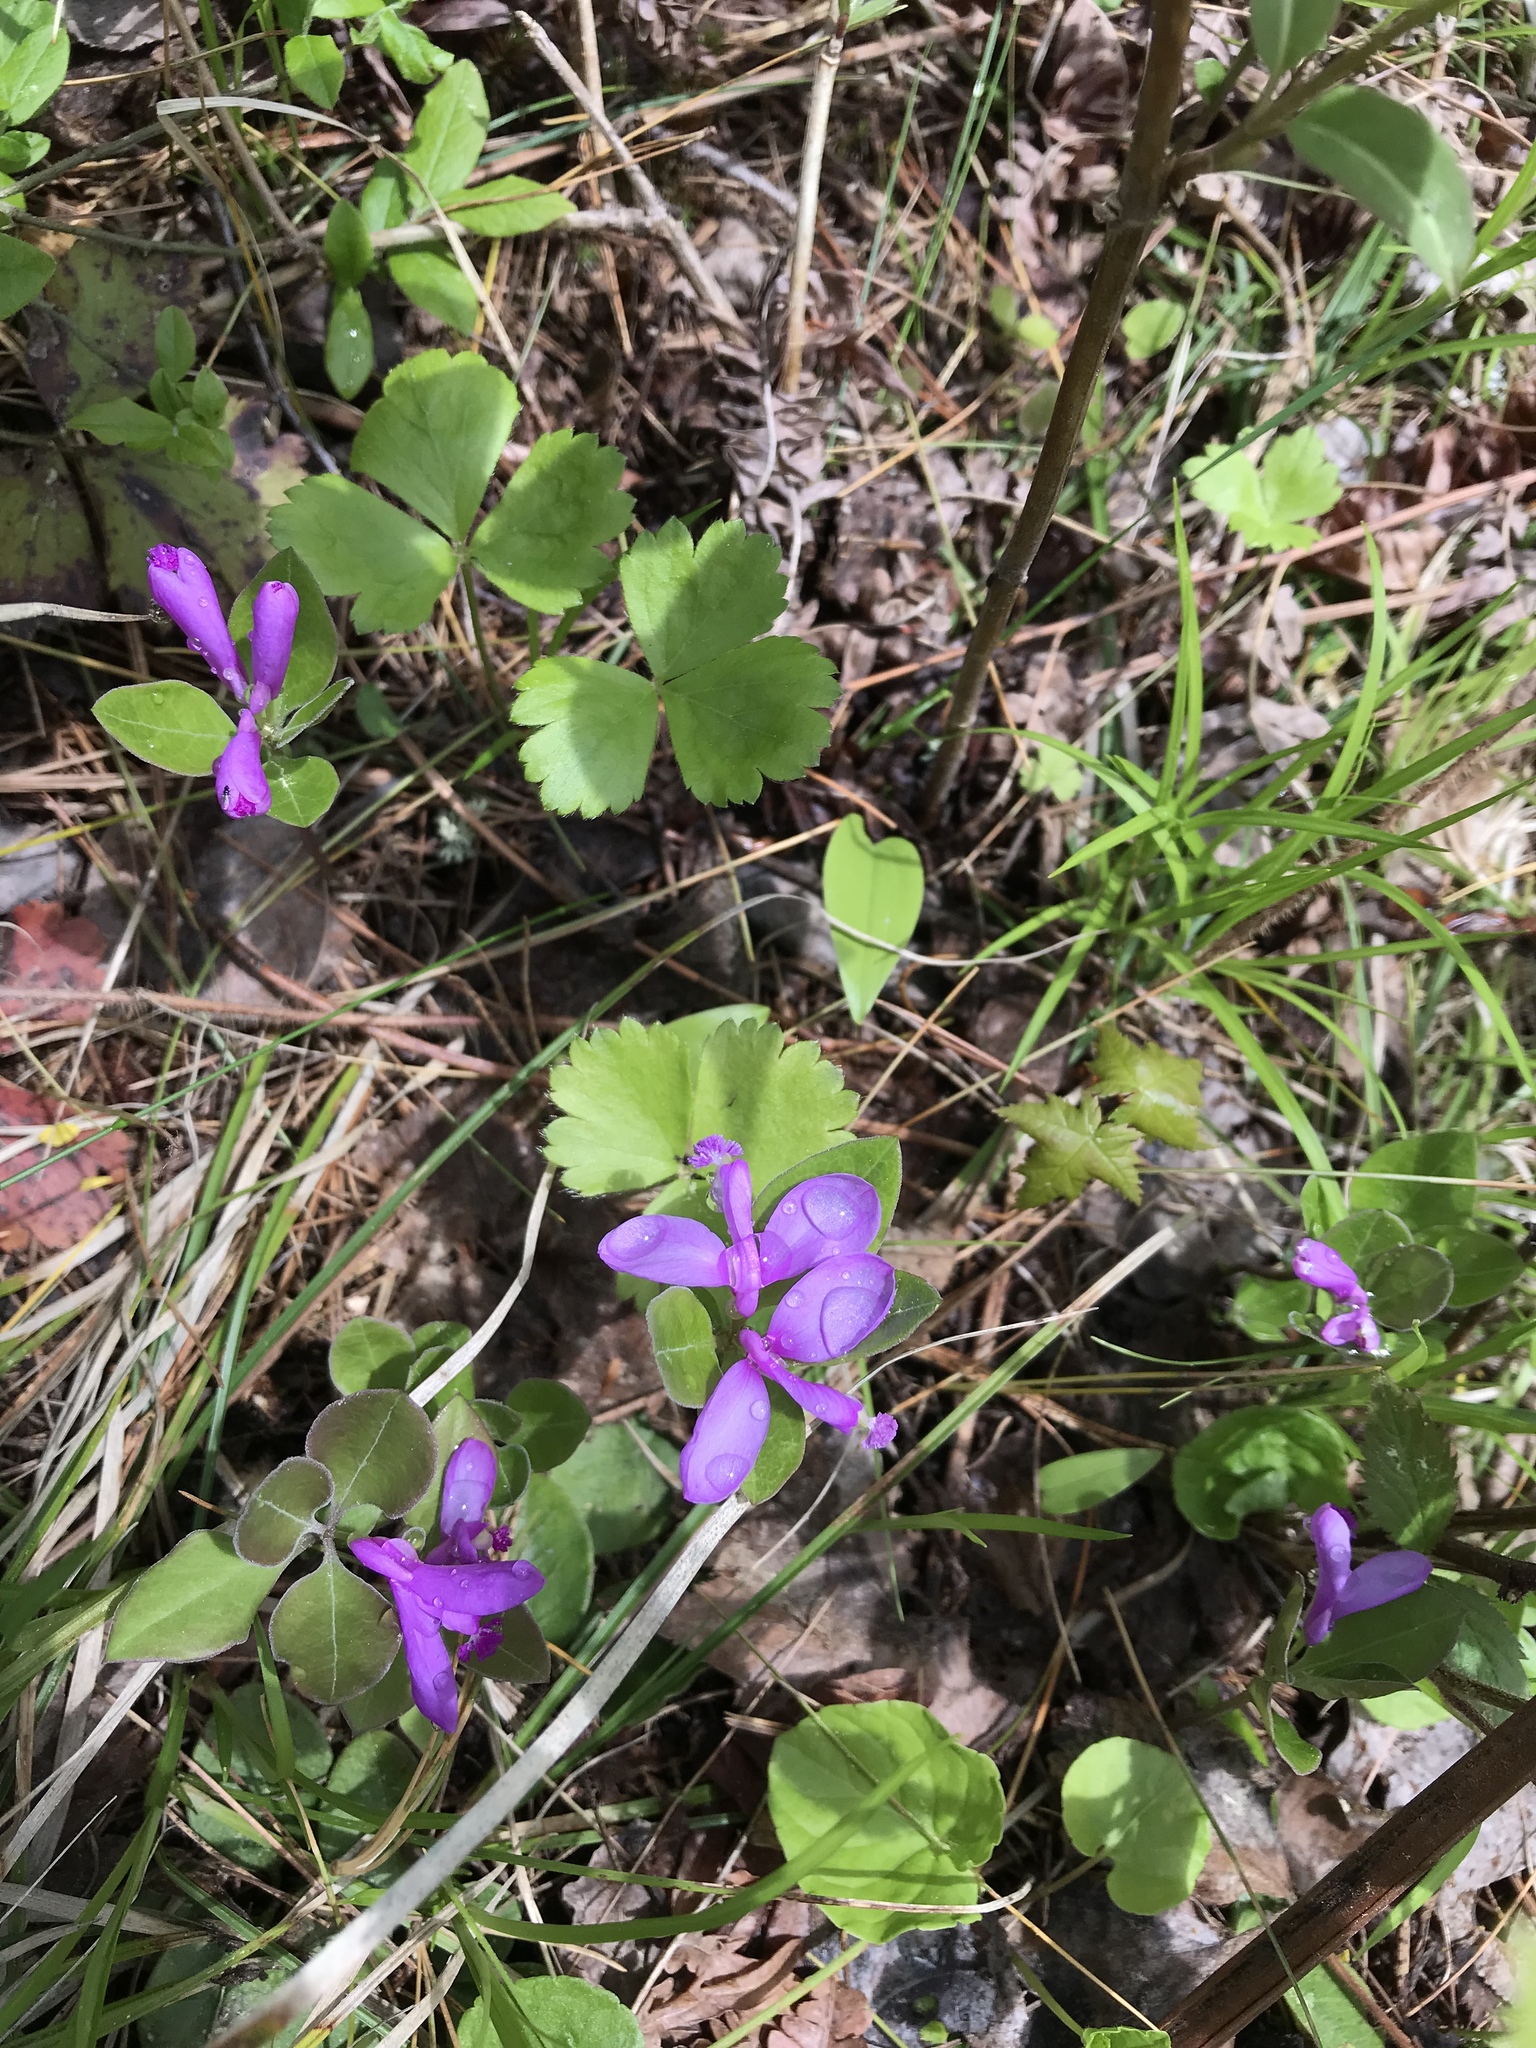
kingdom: Plantae
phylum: Tracheophyta
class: Magnoliopsida
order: Fabales
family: Polygalaceae
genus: Polygaloides
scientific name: Polygaloides paucifolia
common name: Bird-on-the-wing
